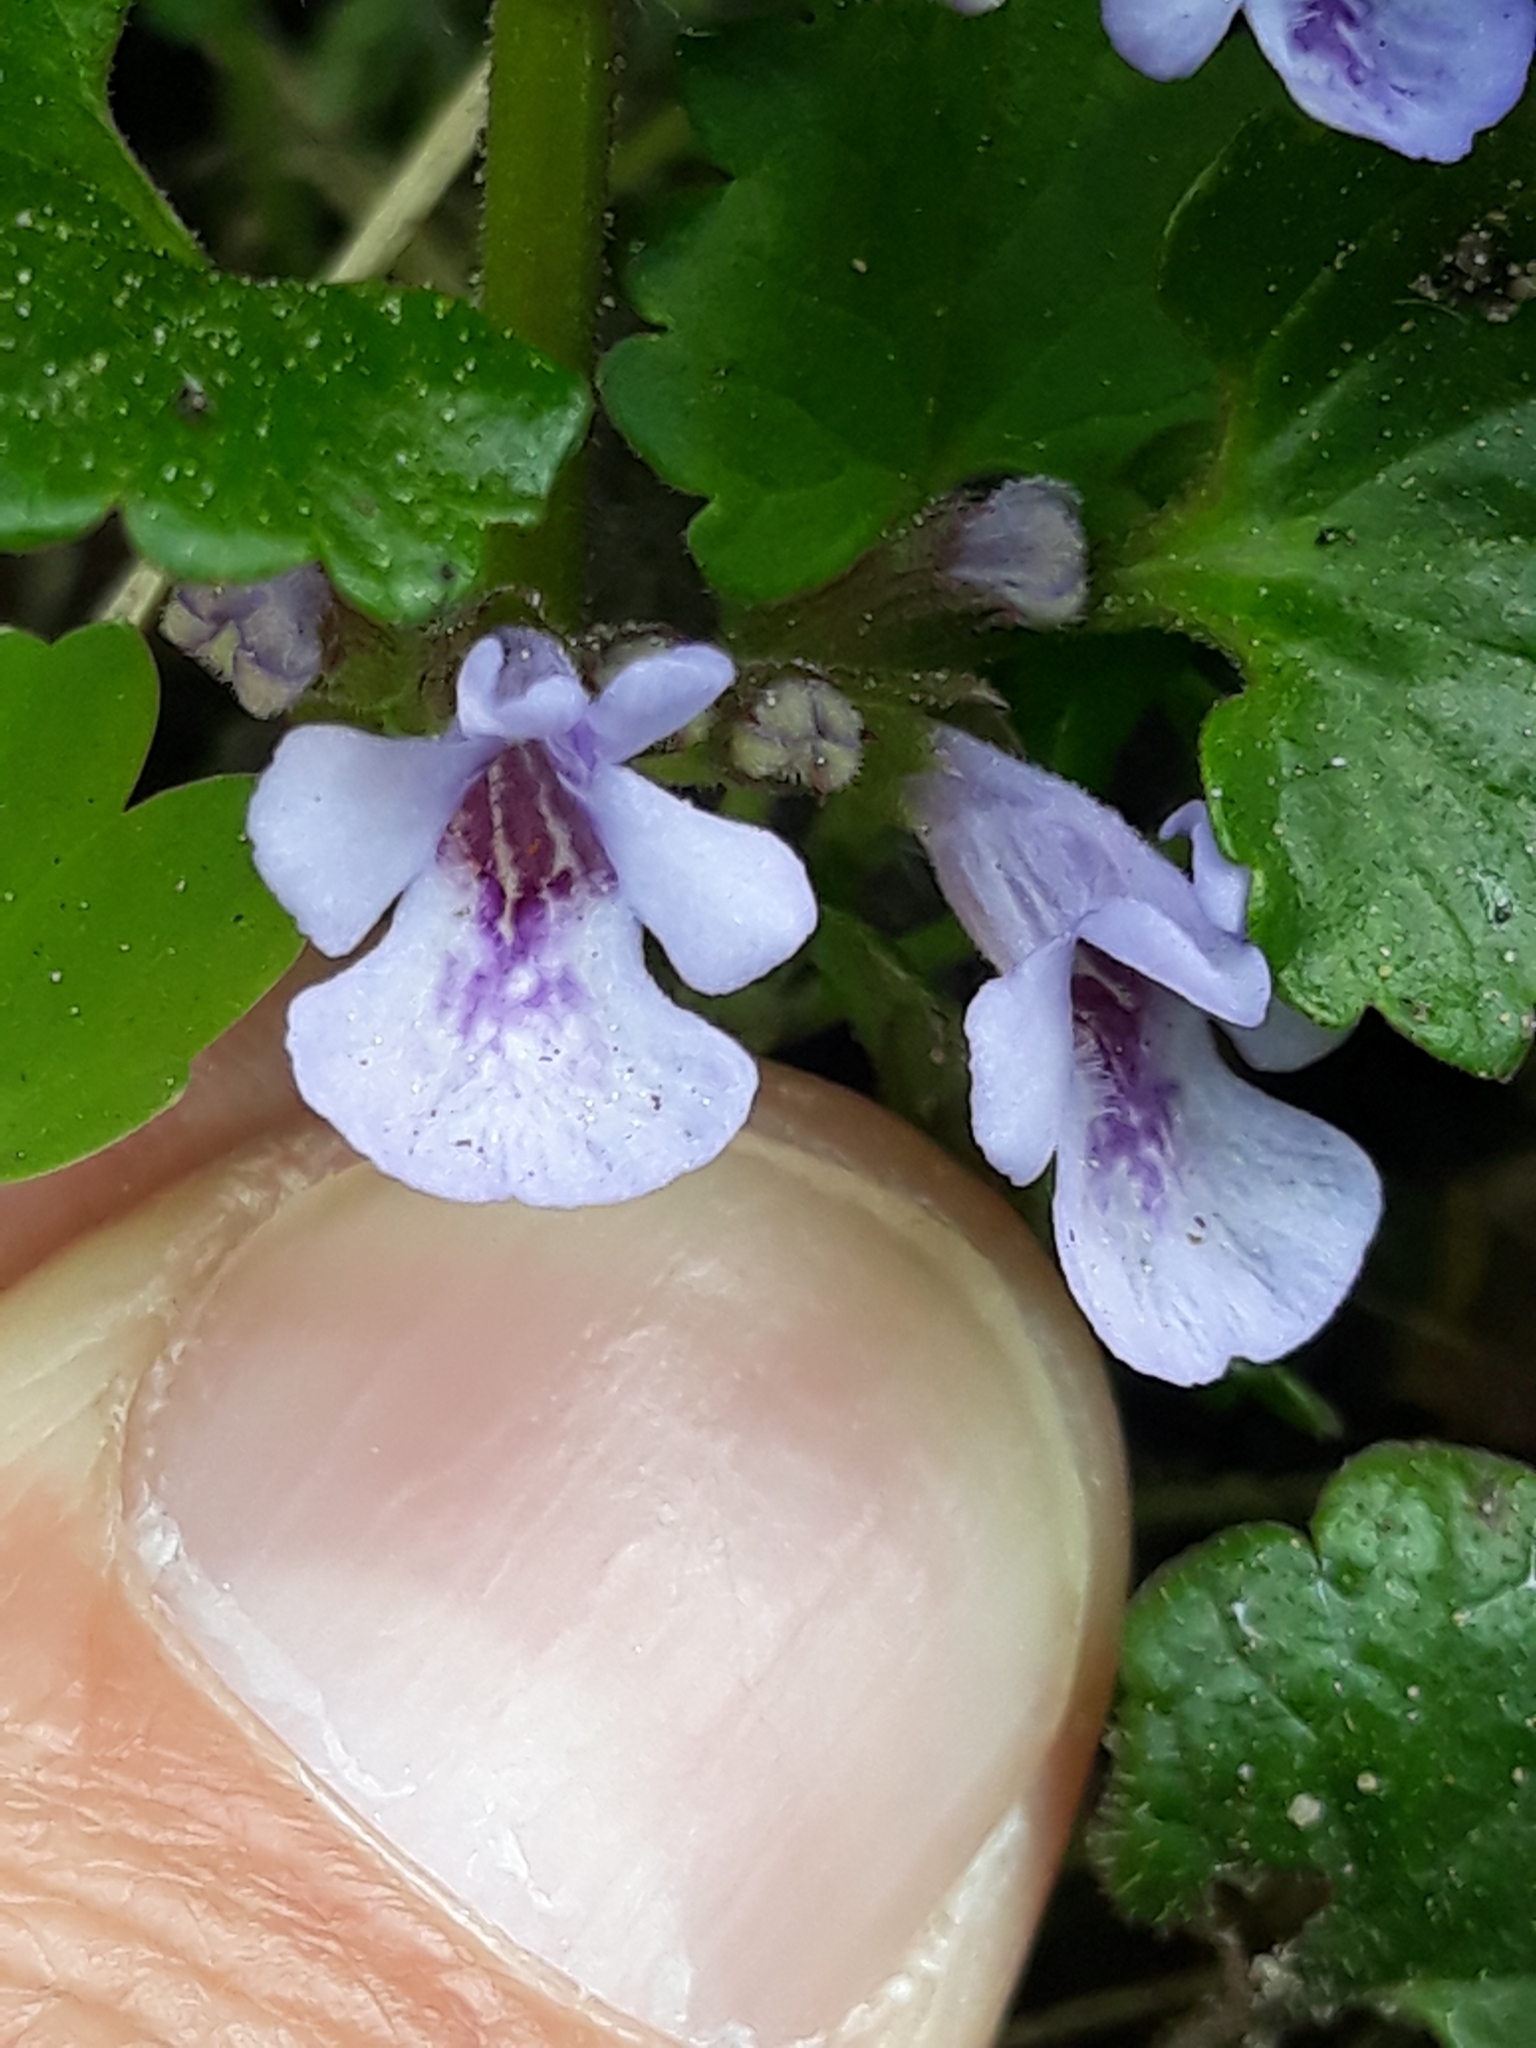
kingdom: Plantae
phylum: Tracheophyta
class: Magnoliopsida
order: Lamiales
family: Lamiaceae
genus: Glechoma
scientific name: Glechoma hederacea
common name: Ground ivy
